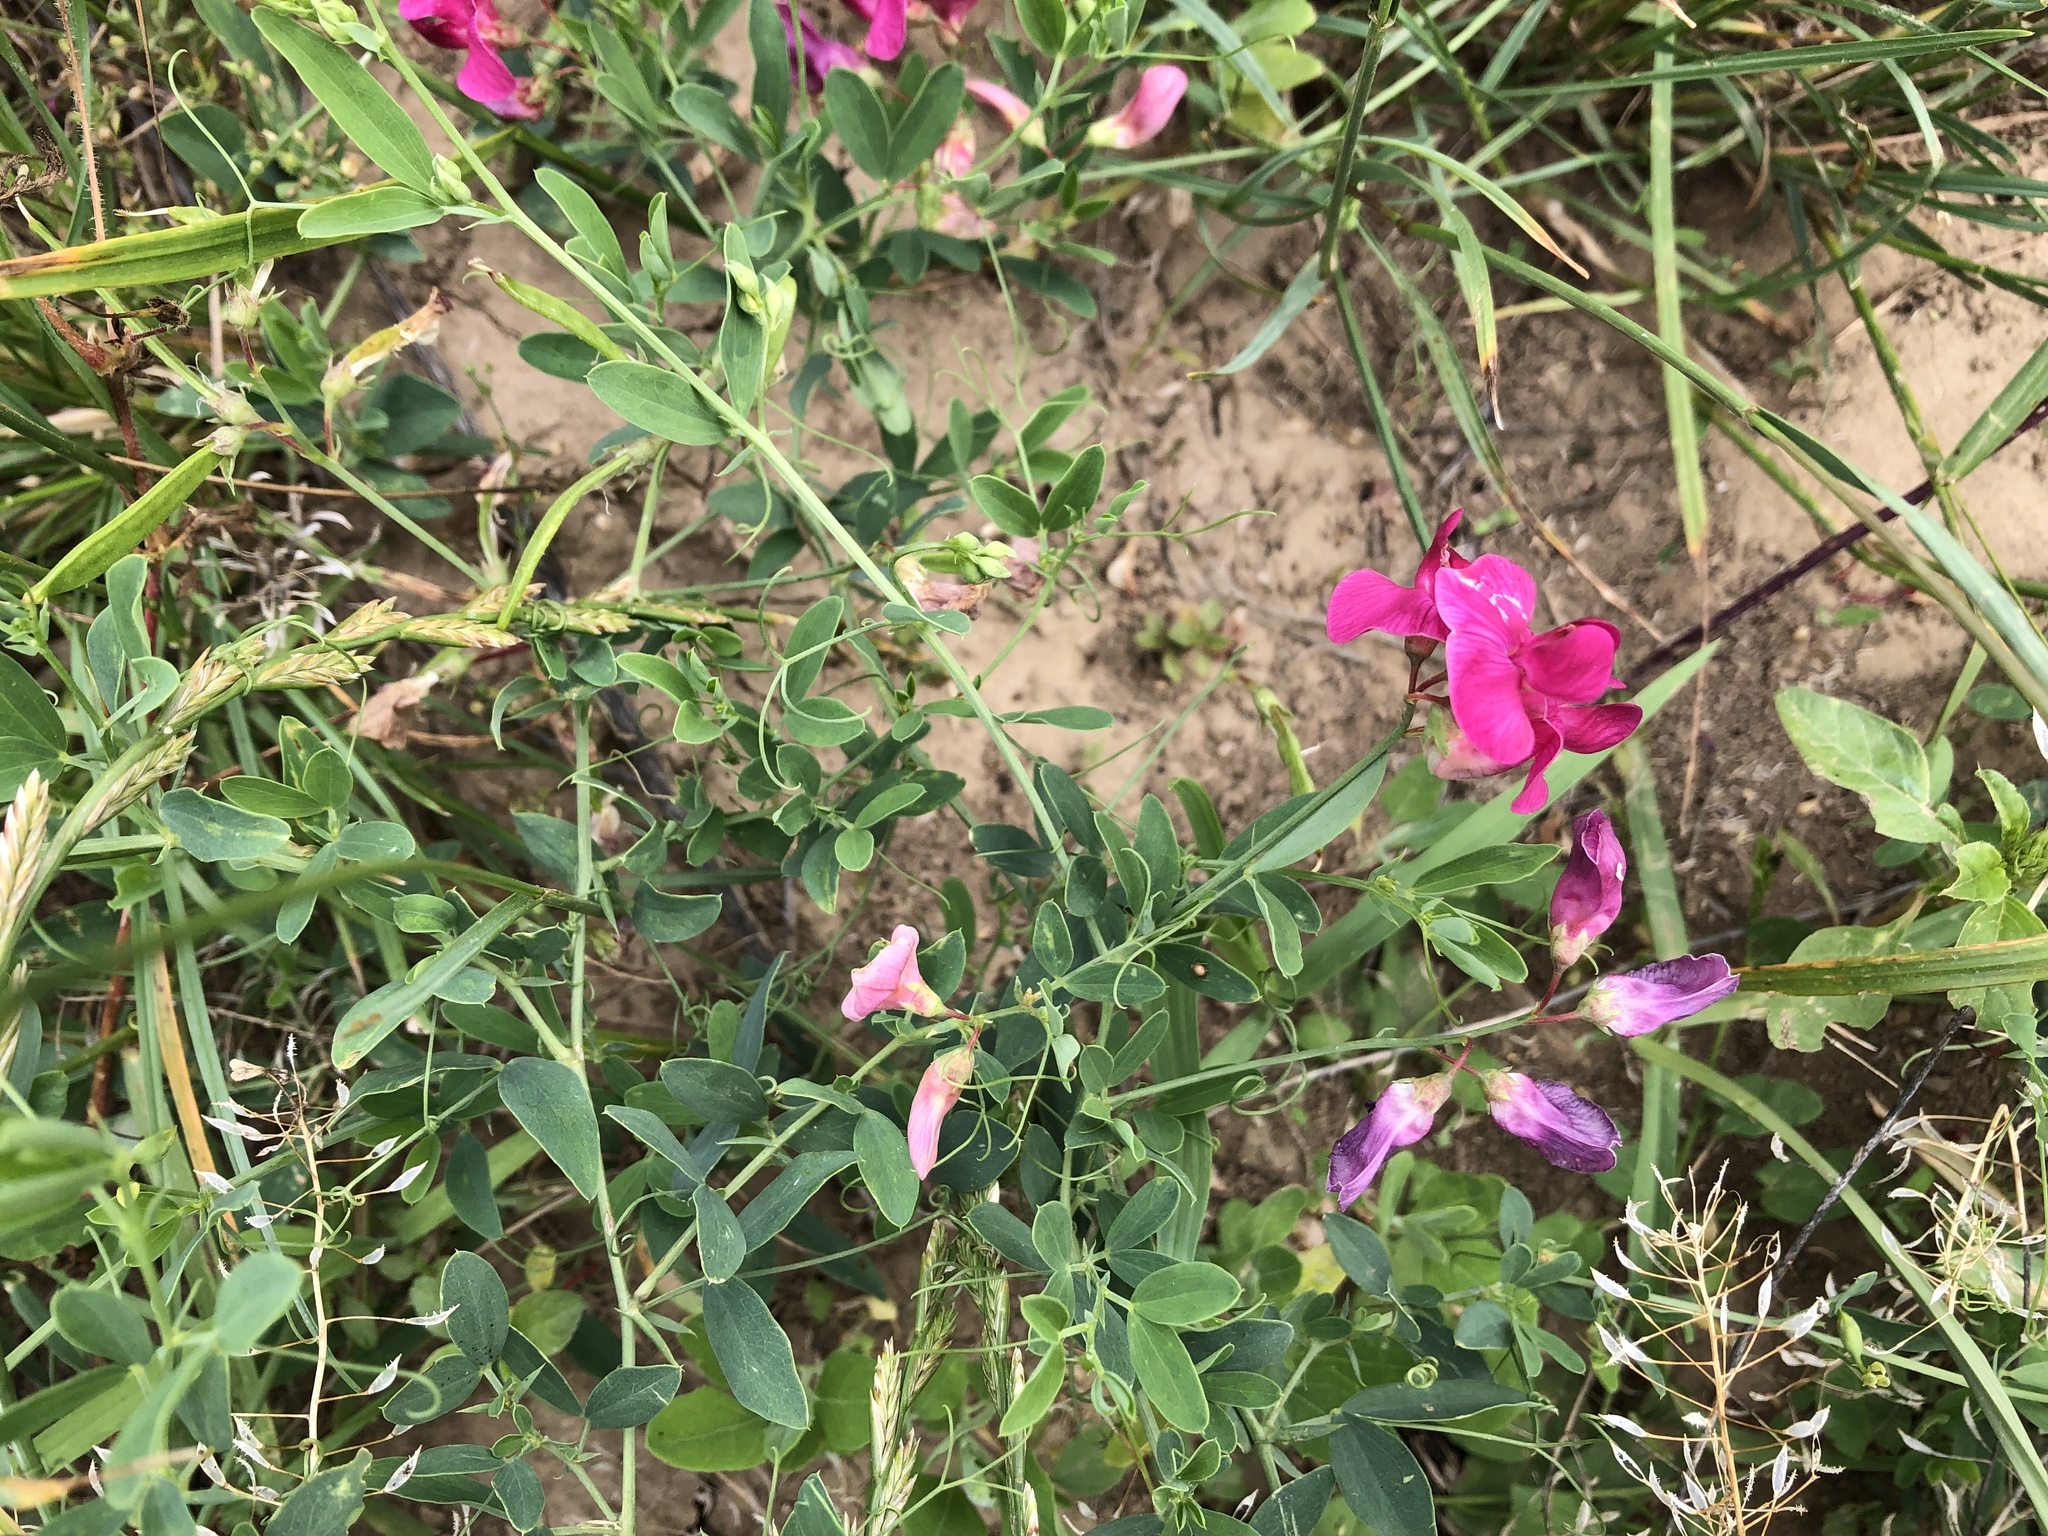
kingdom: Plantae
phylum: Tracheophyta
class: Magnoliopsida
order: Fabales
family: Fabaceae
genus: Lathyrus
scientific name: Lathyrus tuberosus
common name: Tuberous pea
